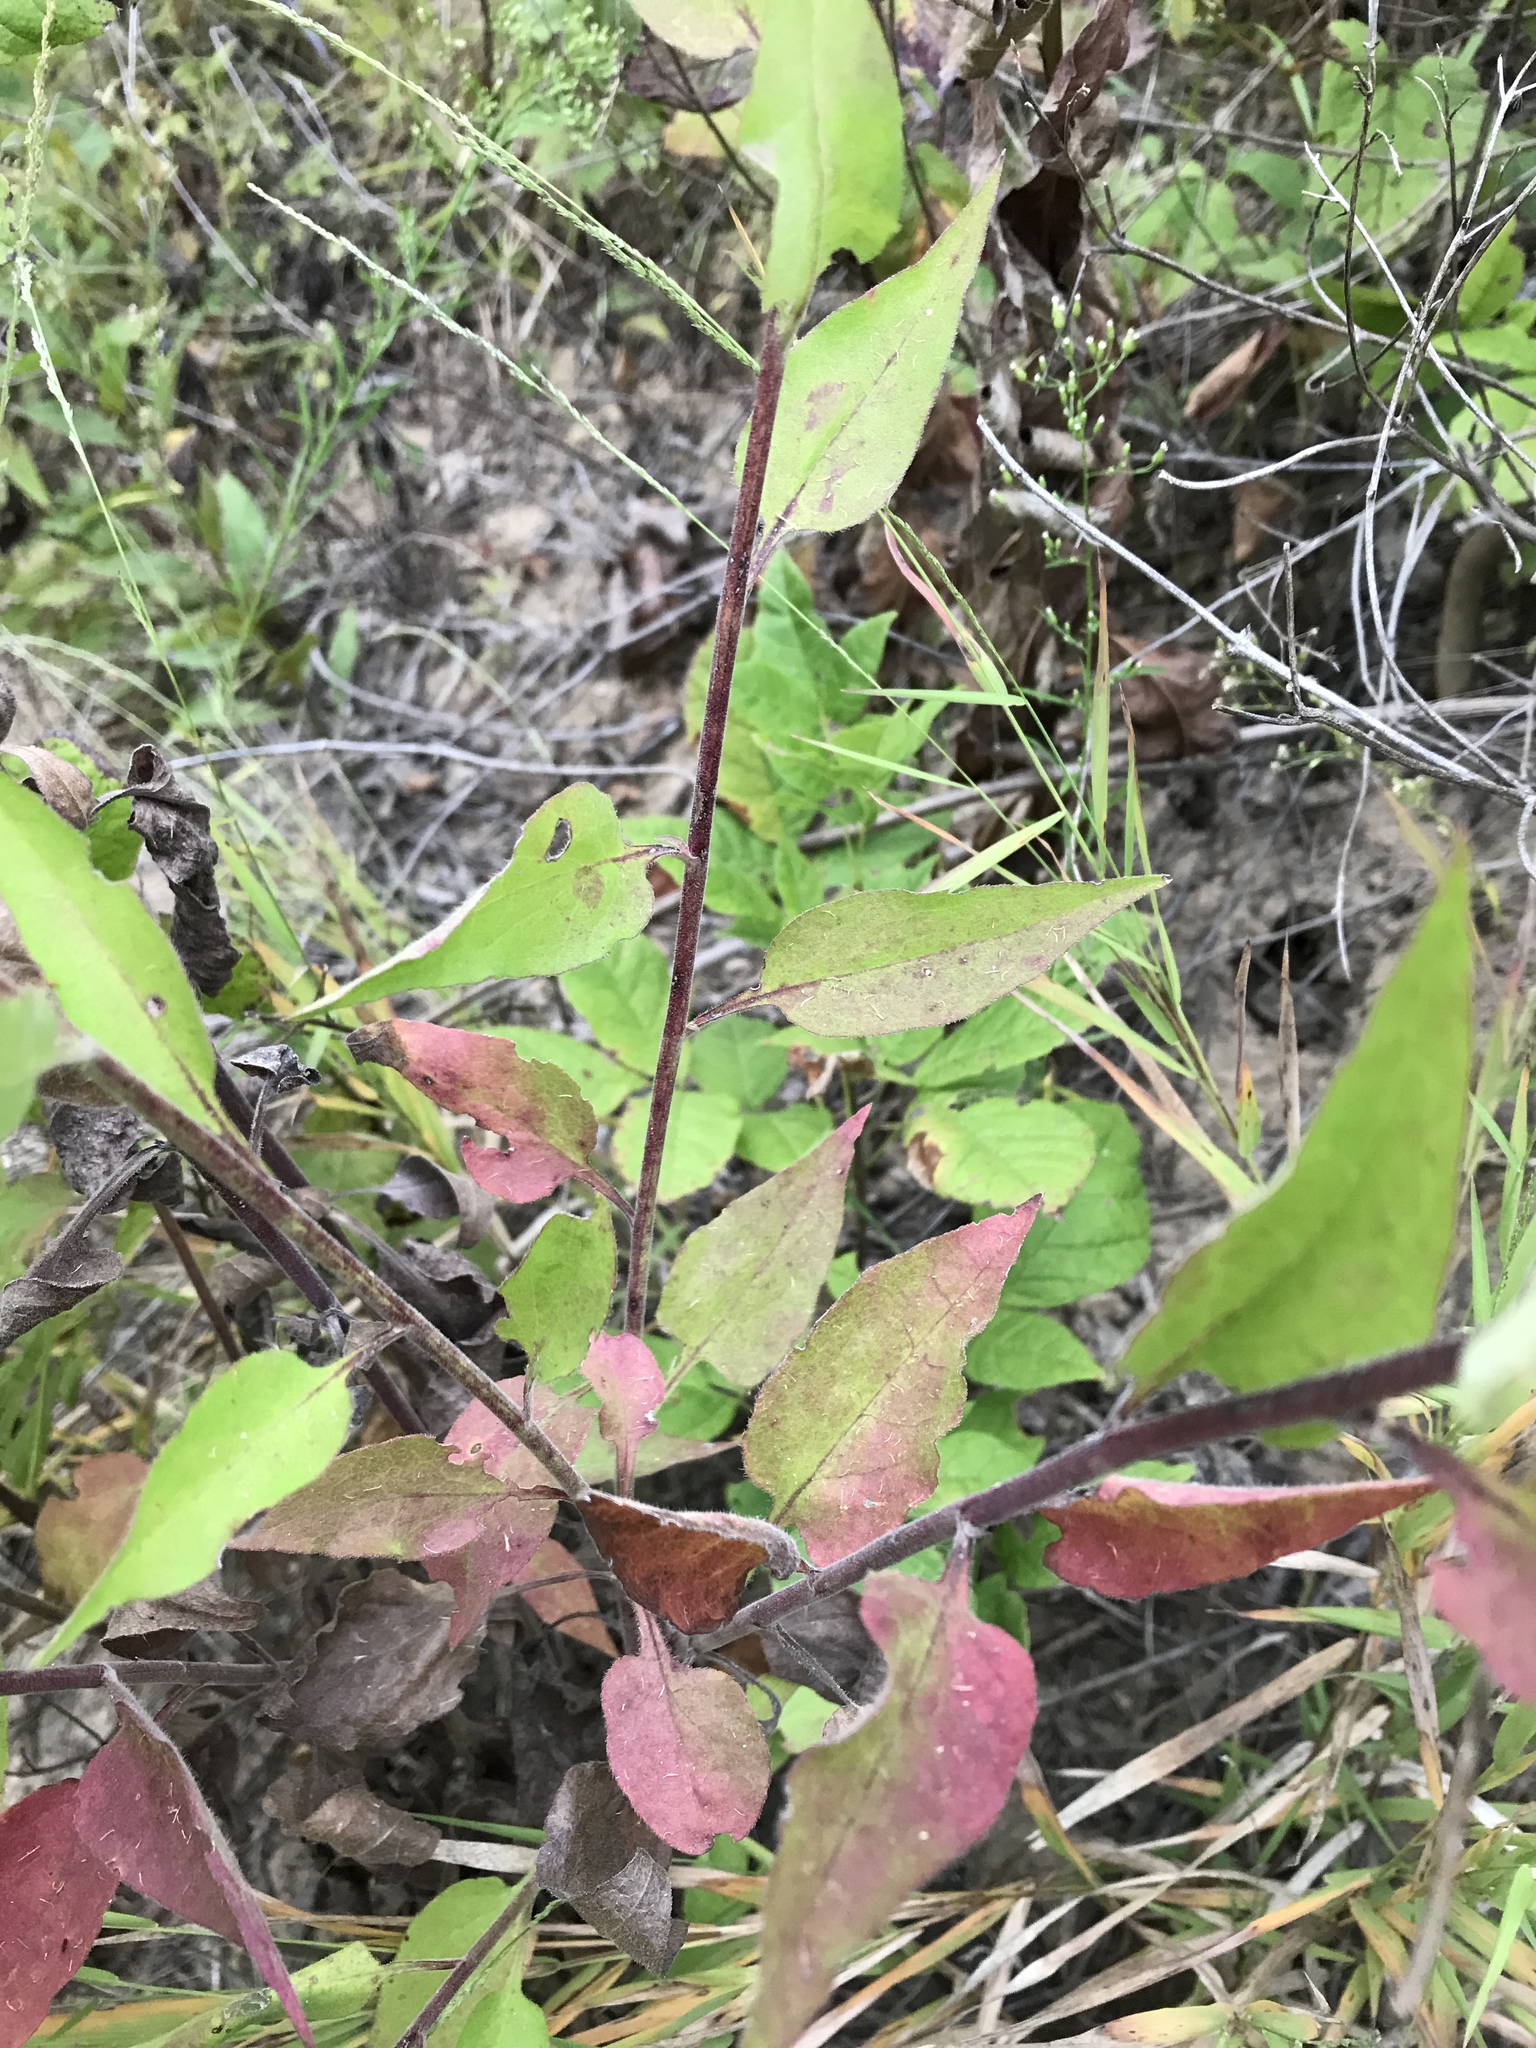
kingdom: Plantae
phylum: Tracheophyta
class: Magnoliopsida
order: Asterales
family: Asteraceae
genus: Symphyotrichum
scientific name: Symphyotrichum anomalum
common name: Many-ray aster
